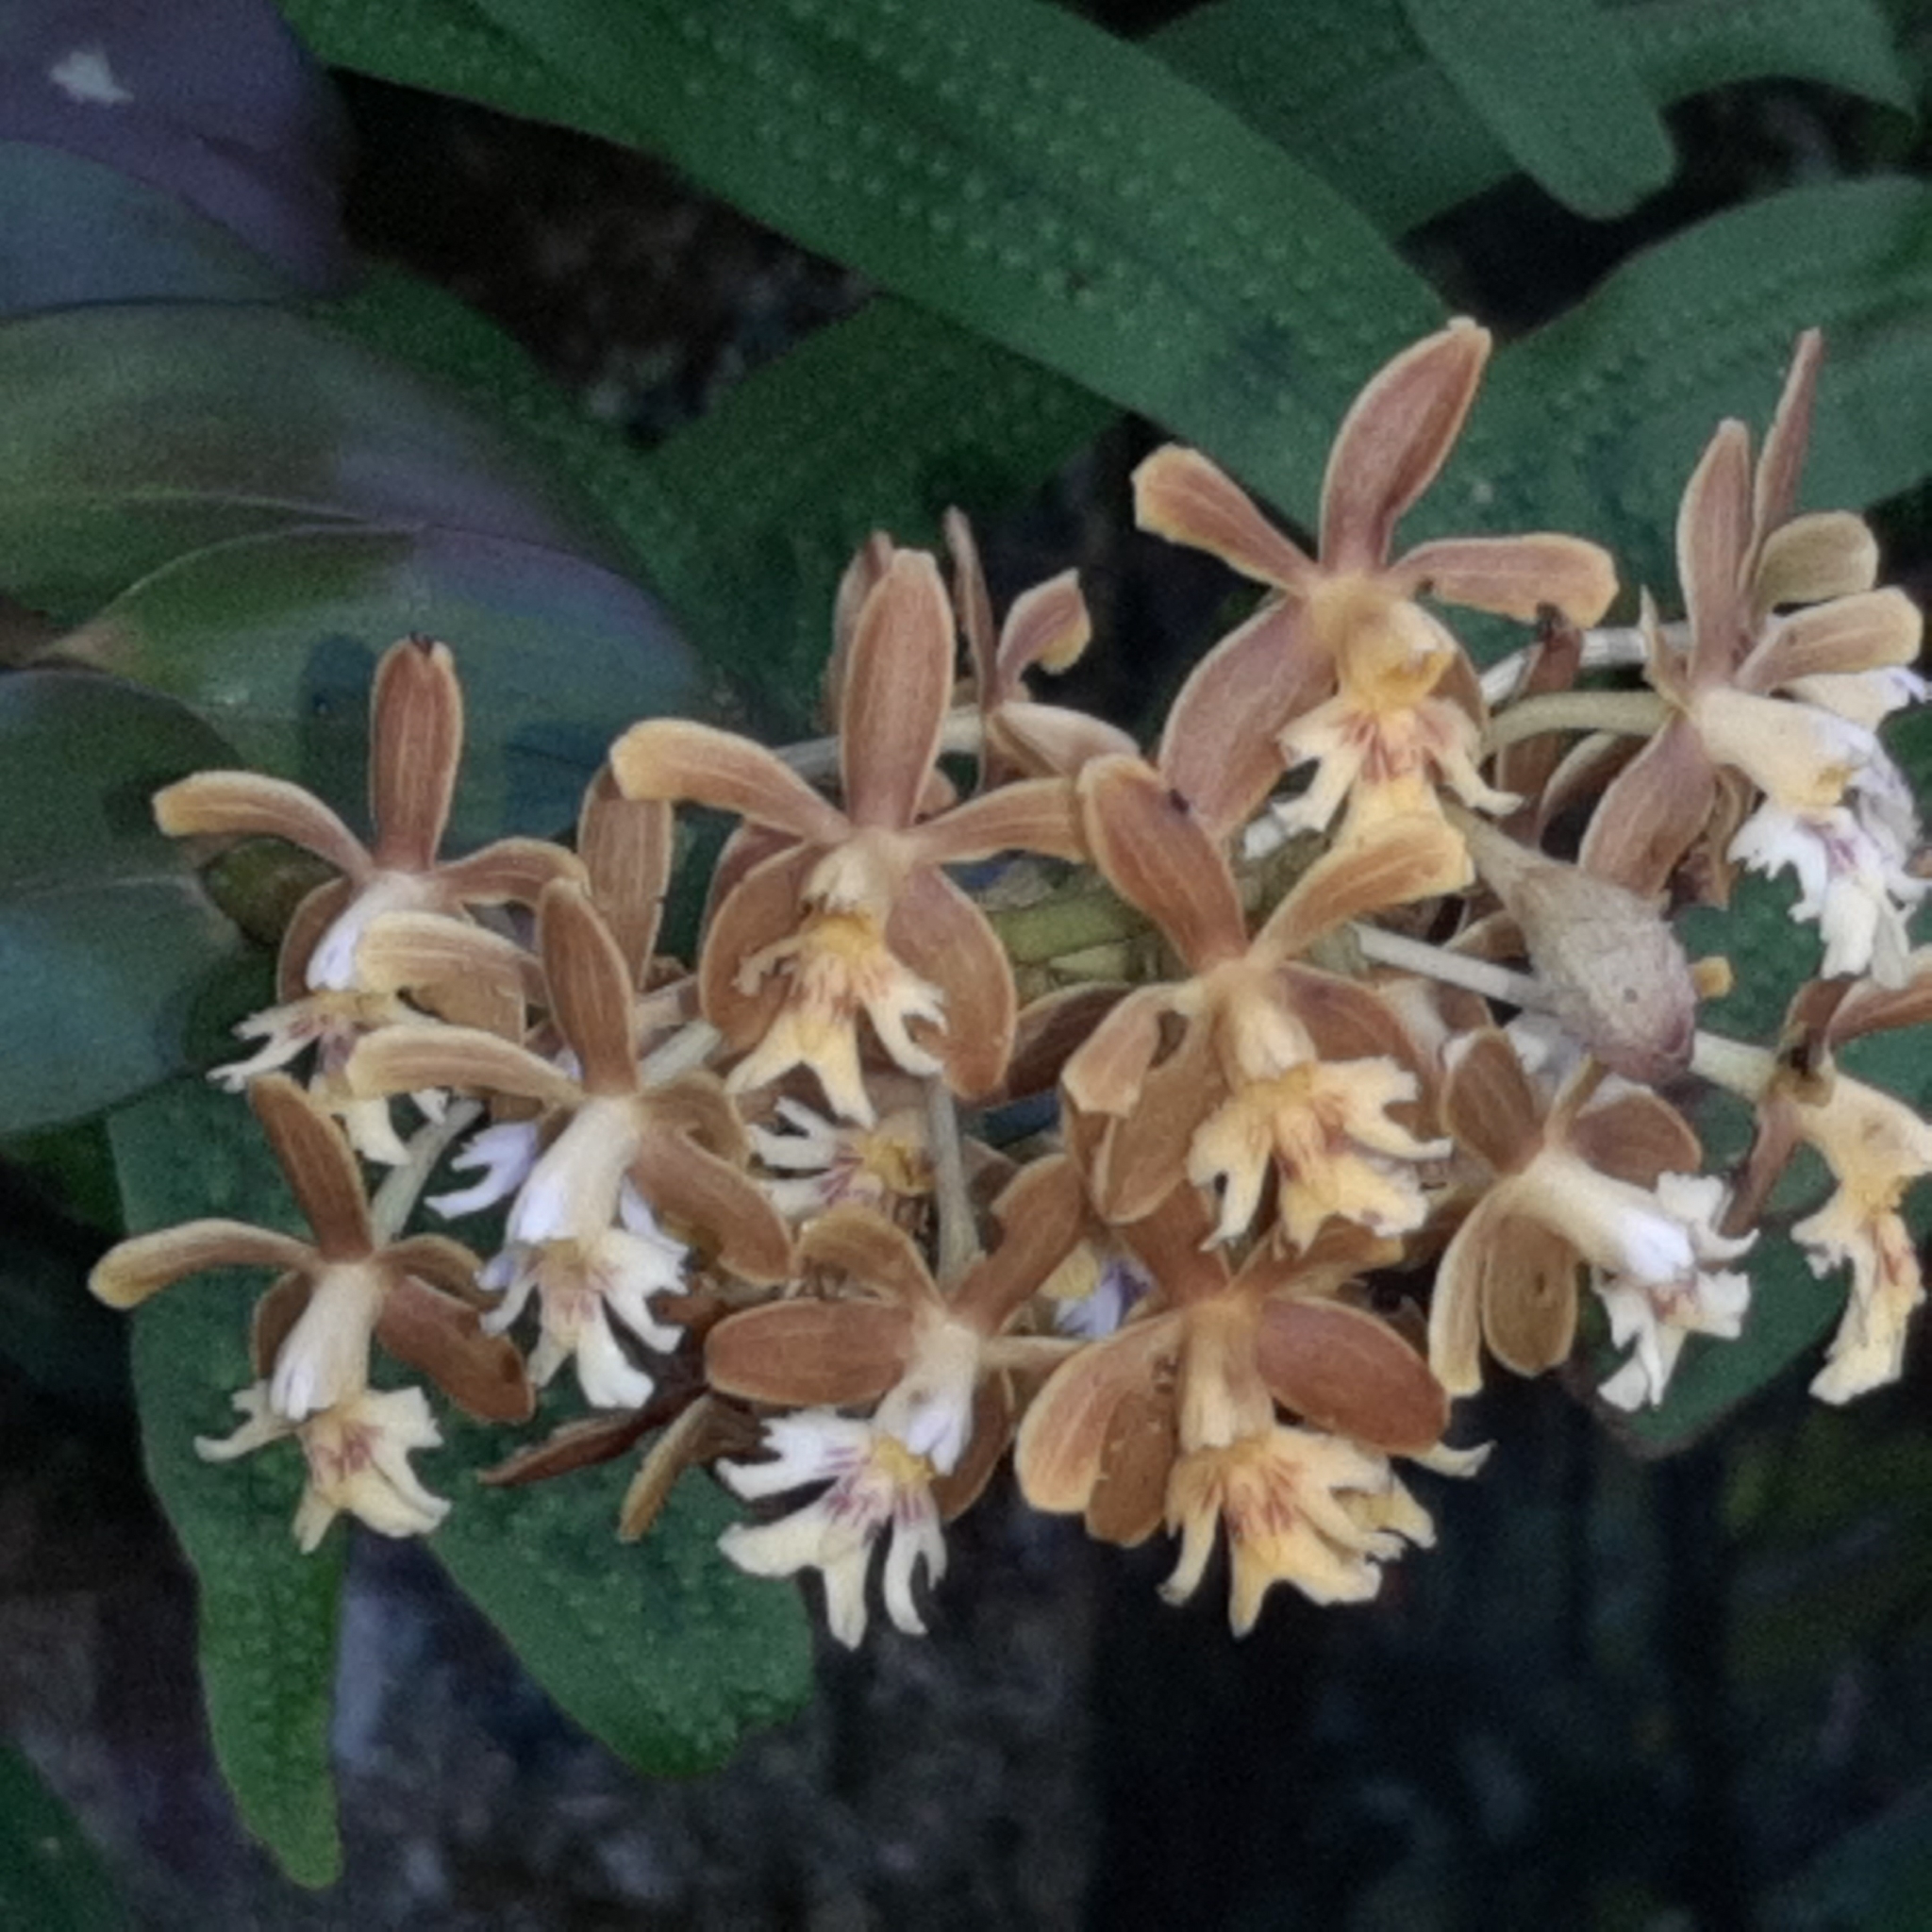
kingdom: Plantae
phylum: Tracheophyta
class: Liliopsida
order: Asparagales
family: Orchidaceae
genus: Epidendrum
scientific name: Epidendrum exasperatum
